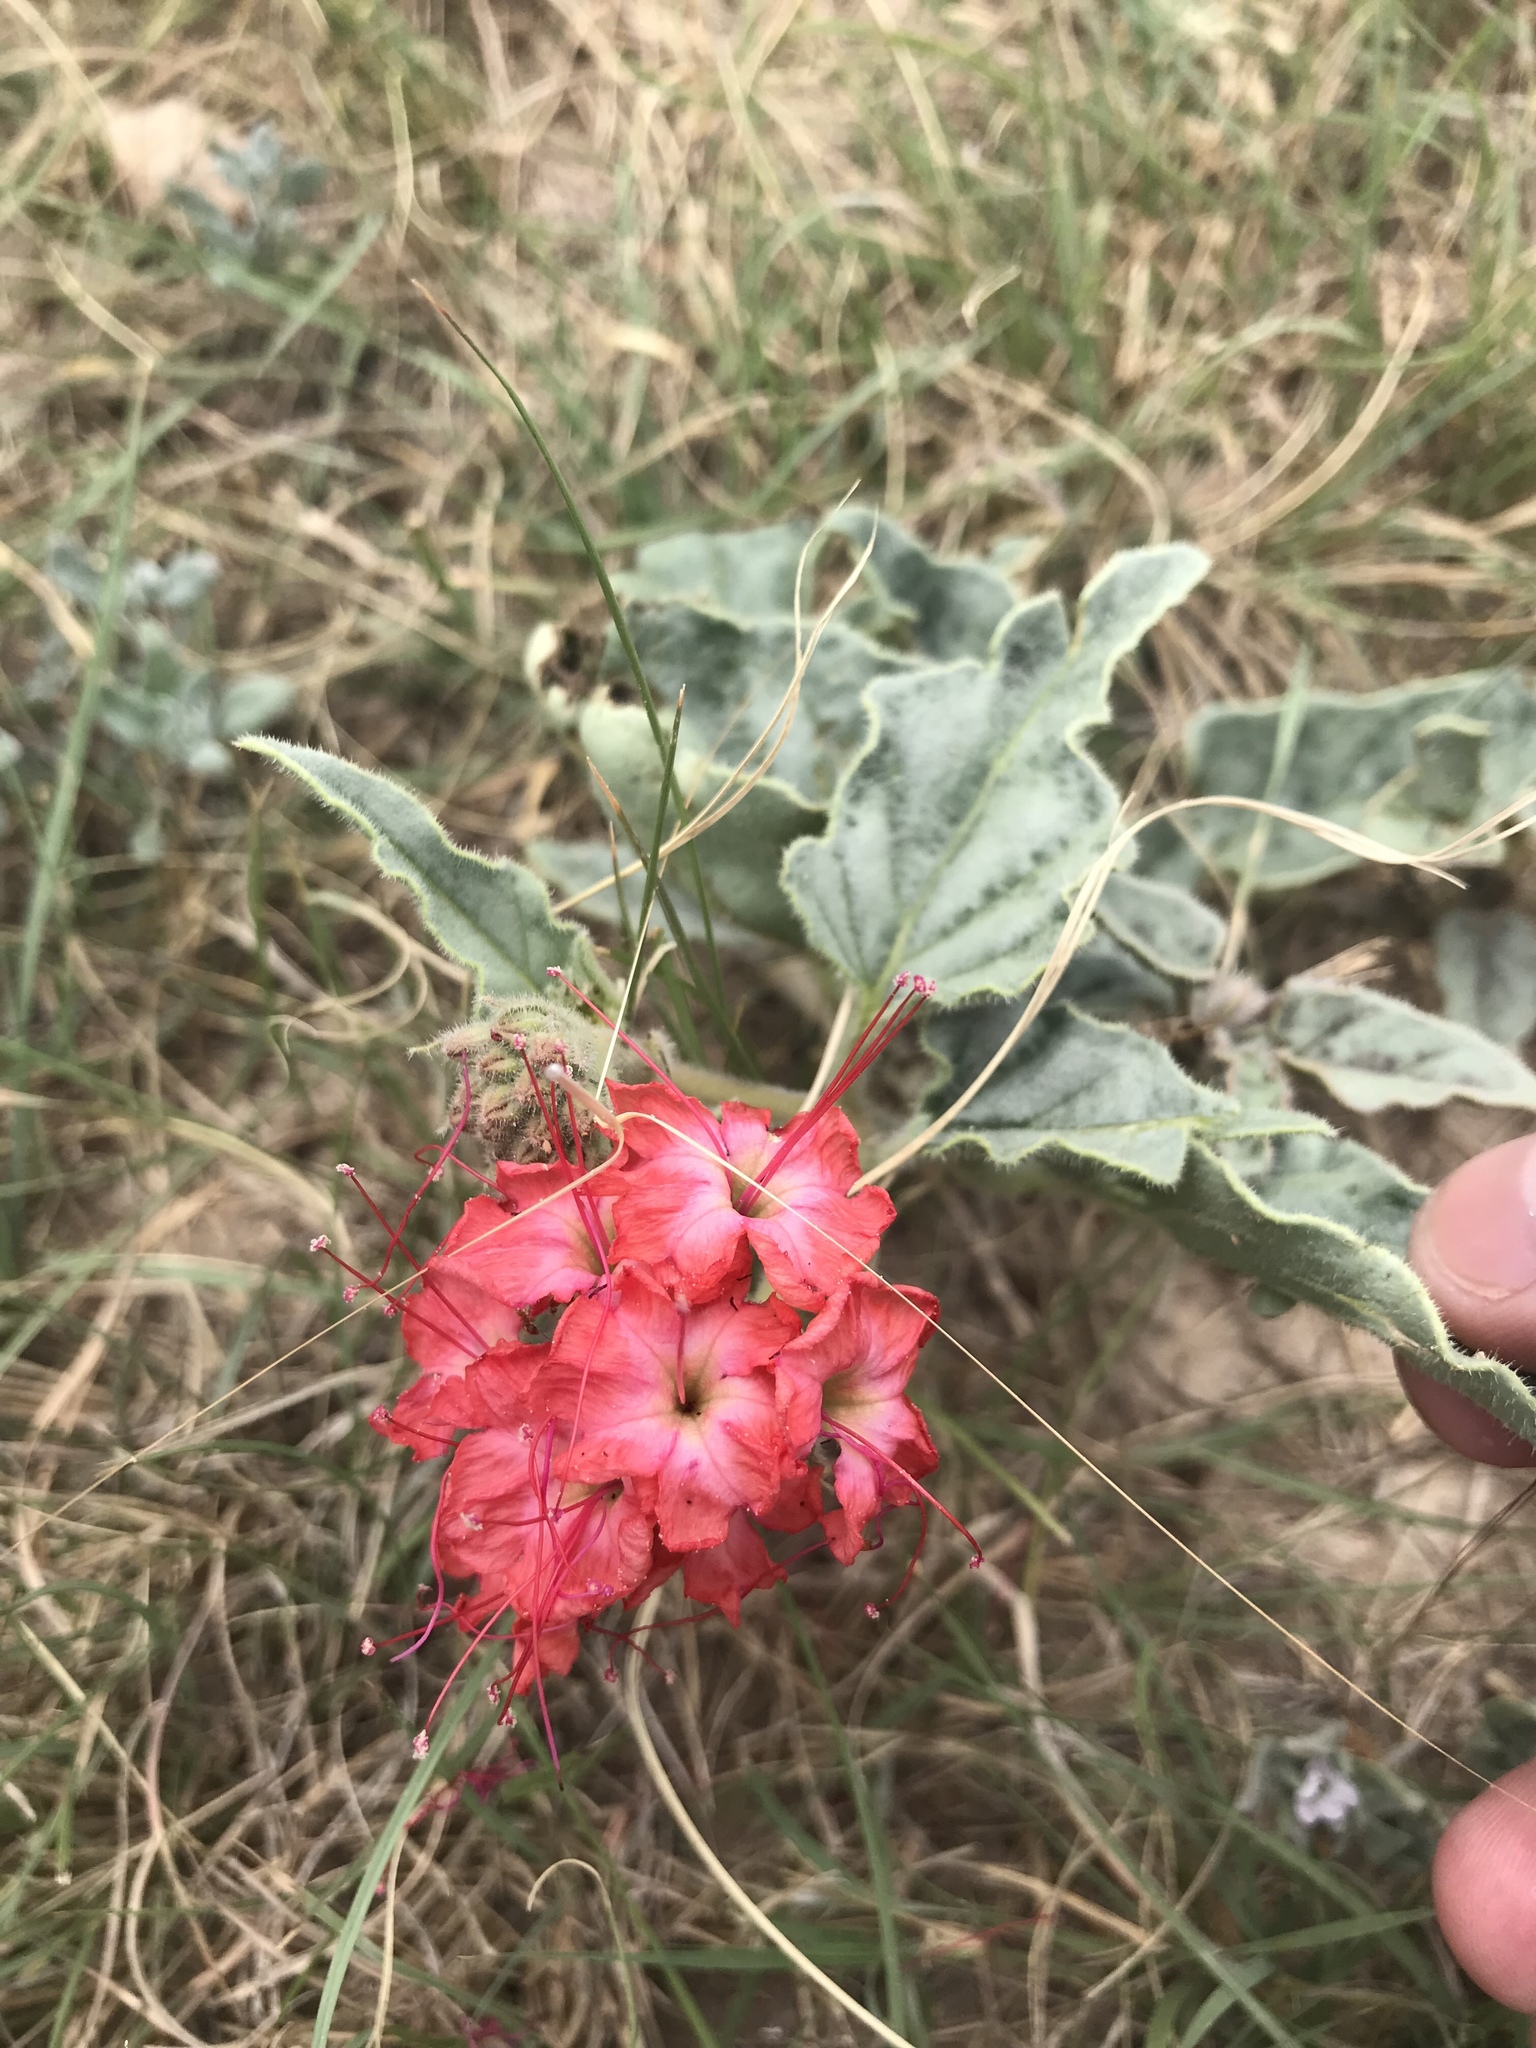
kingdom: Plantae
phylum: Tracheophyta
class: Magnoliopsida
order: Caryophyllales
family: Nyctaginaceae
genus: Nyctaginia
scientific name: Nyctaginia capitata
